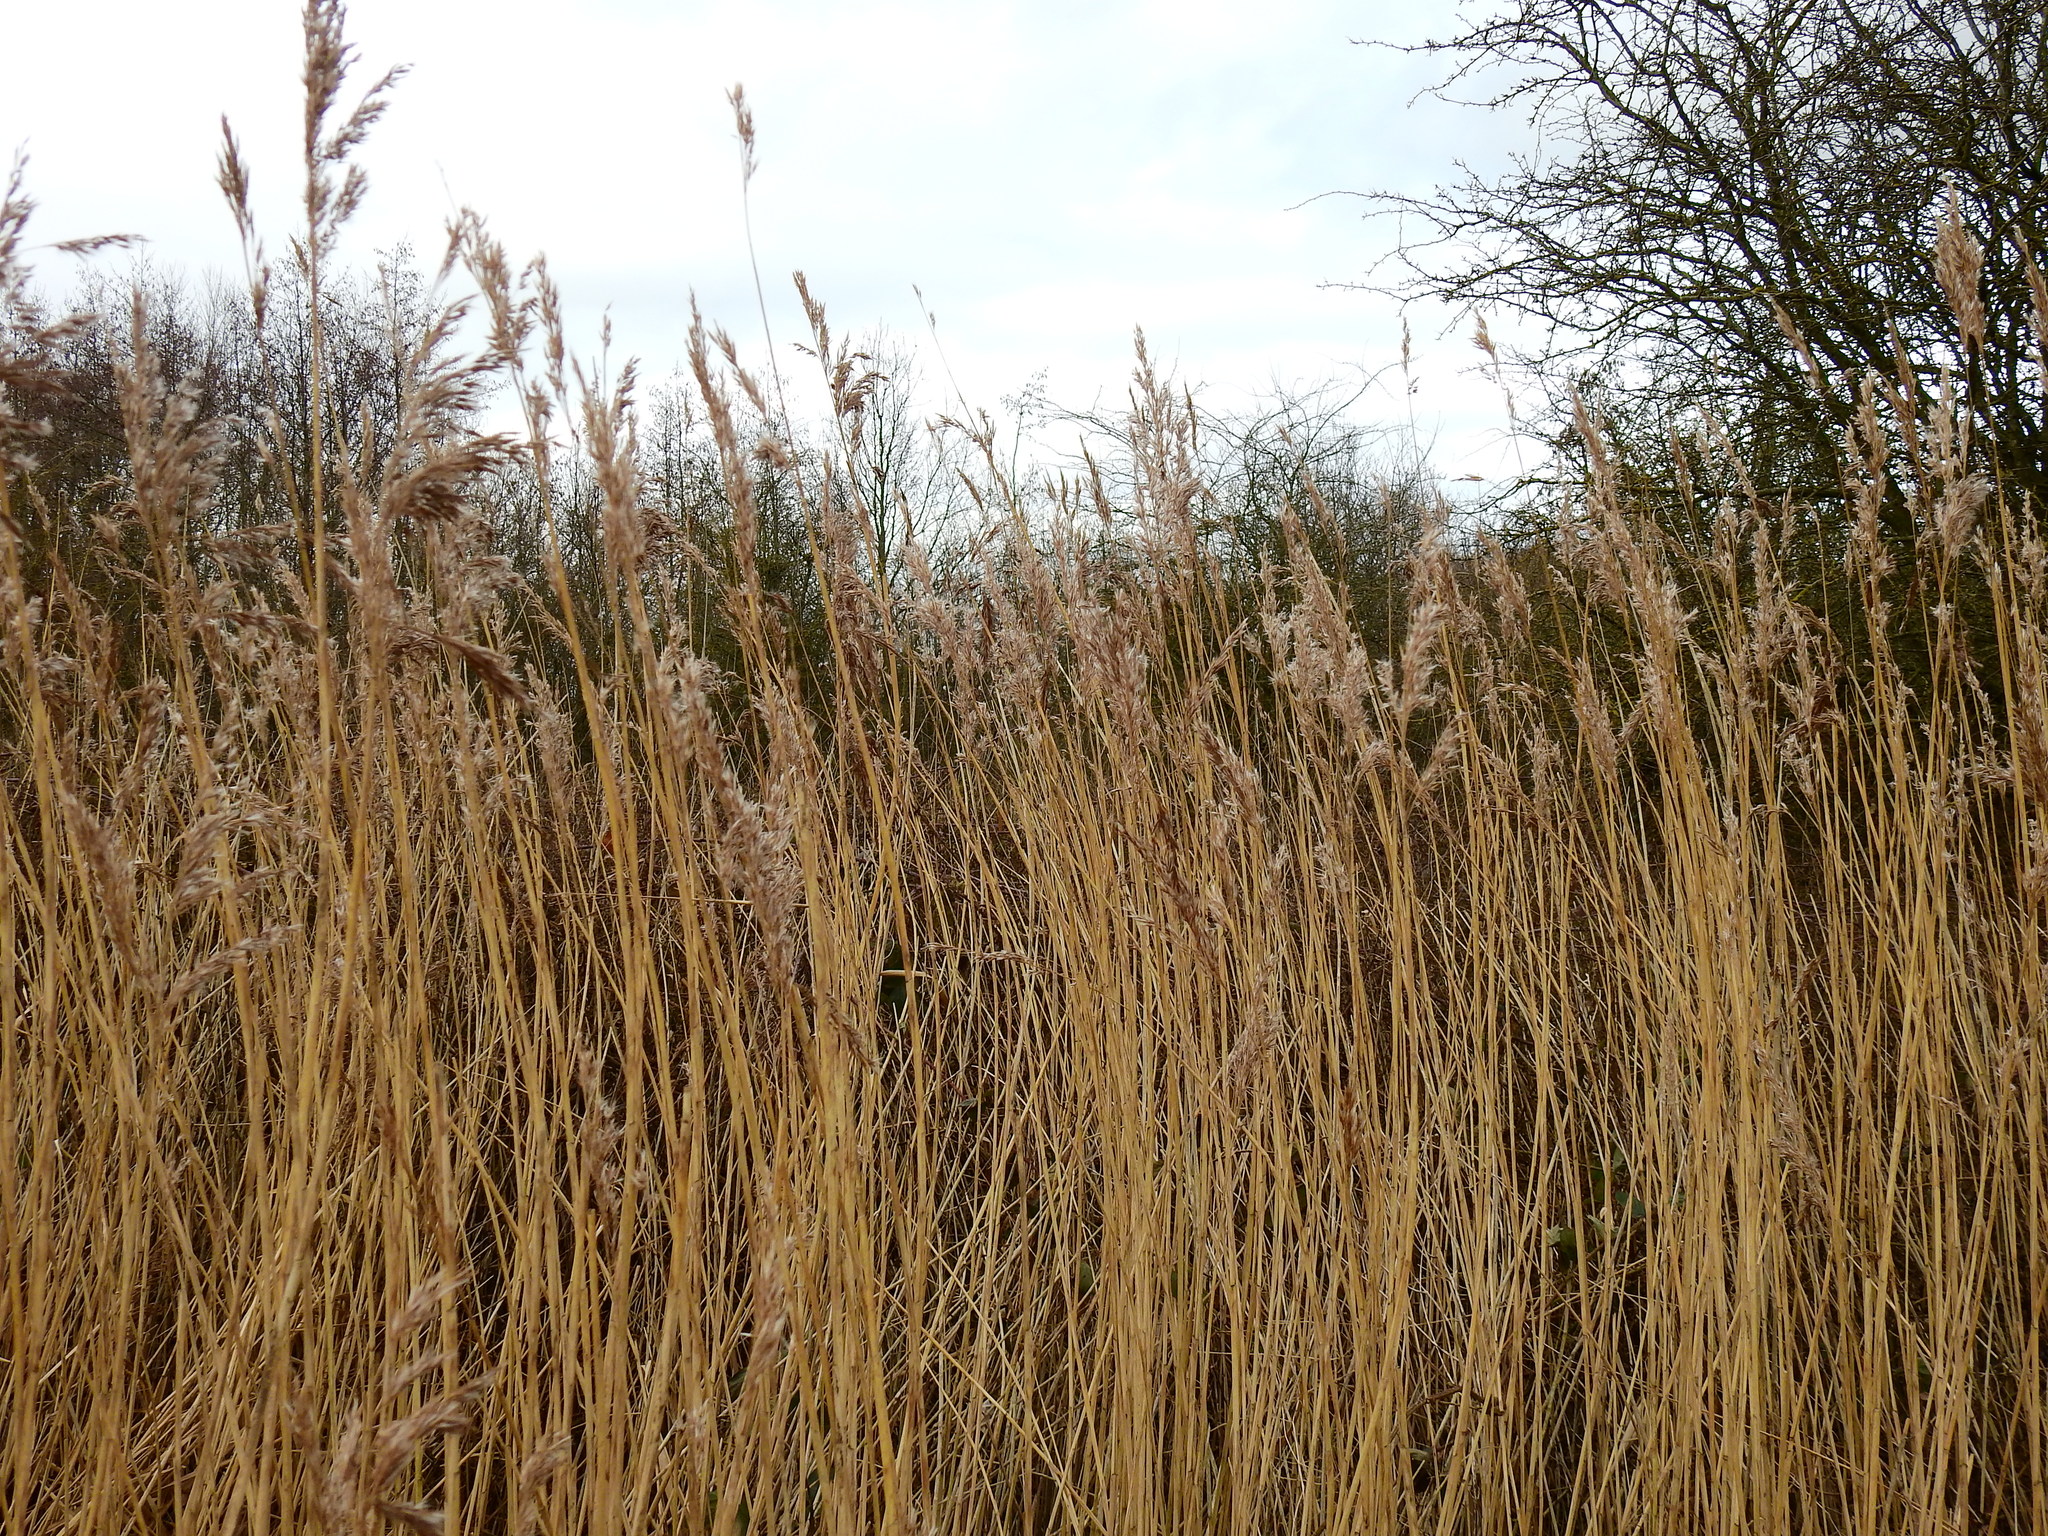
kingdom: Plantae
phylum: Tracheophyta
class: Liliopsida
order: Poales
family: Poaceae
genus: Phragmites
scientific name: Phragmites australis
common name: Common reed
